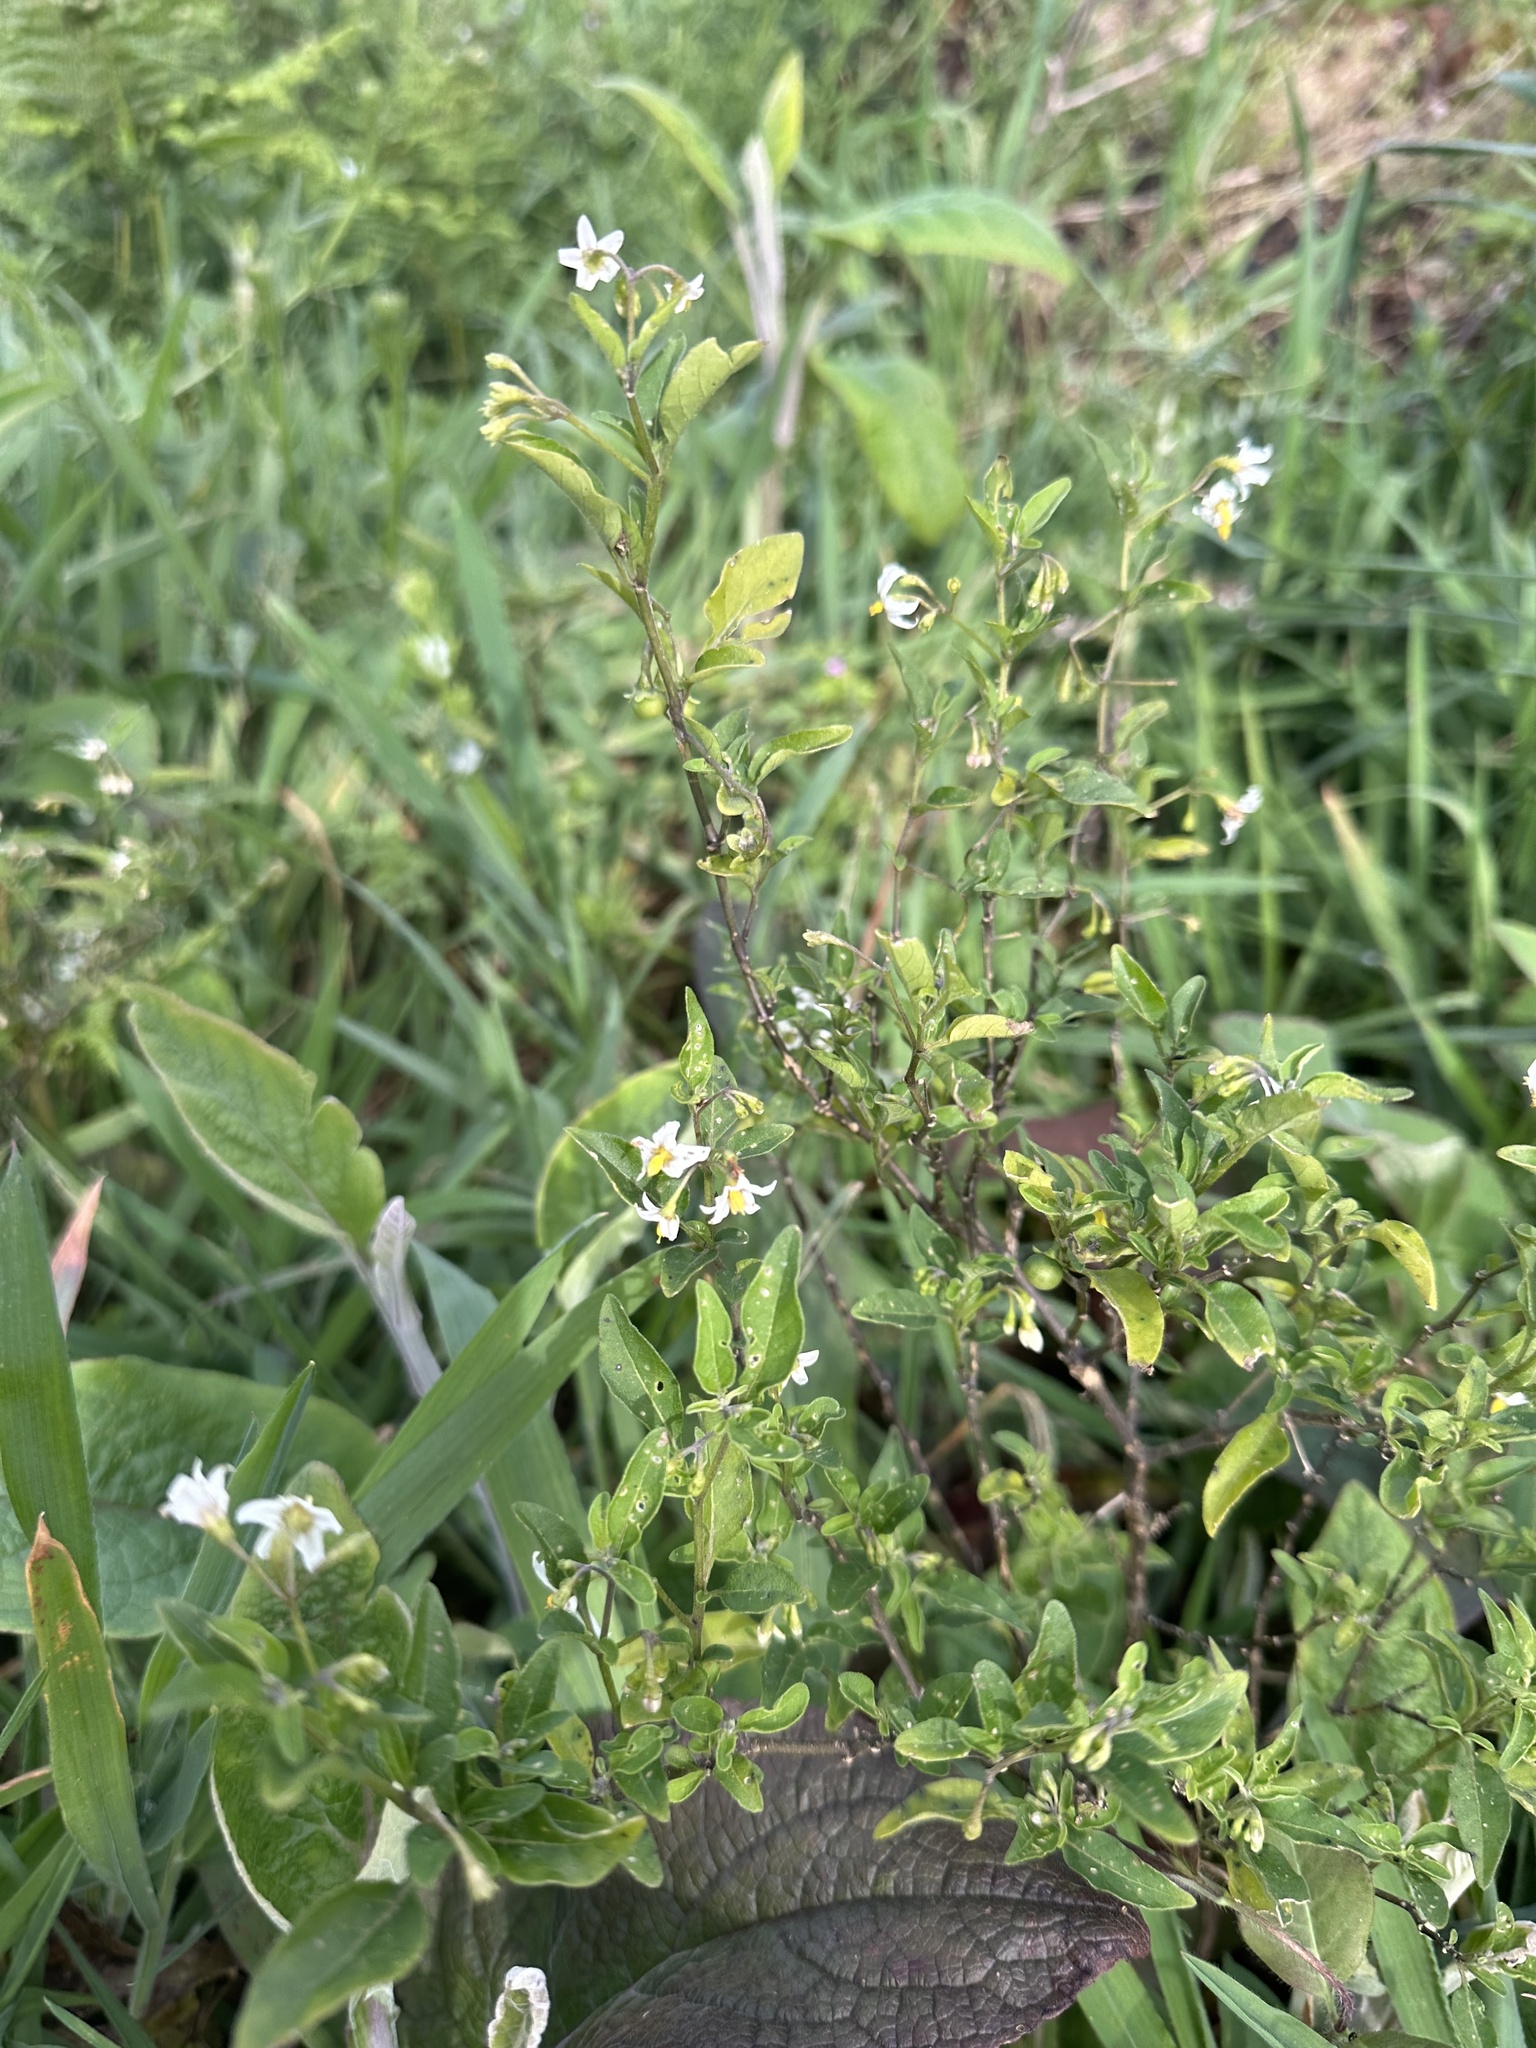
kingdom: Plantae
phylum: Tracheophyta
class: Magnoliopsida
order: Solanales
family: Solanaceae
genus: Solanum
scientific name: Solanum chenopodioides
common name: Tall nightshade
